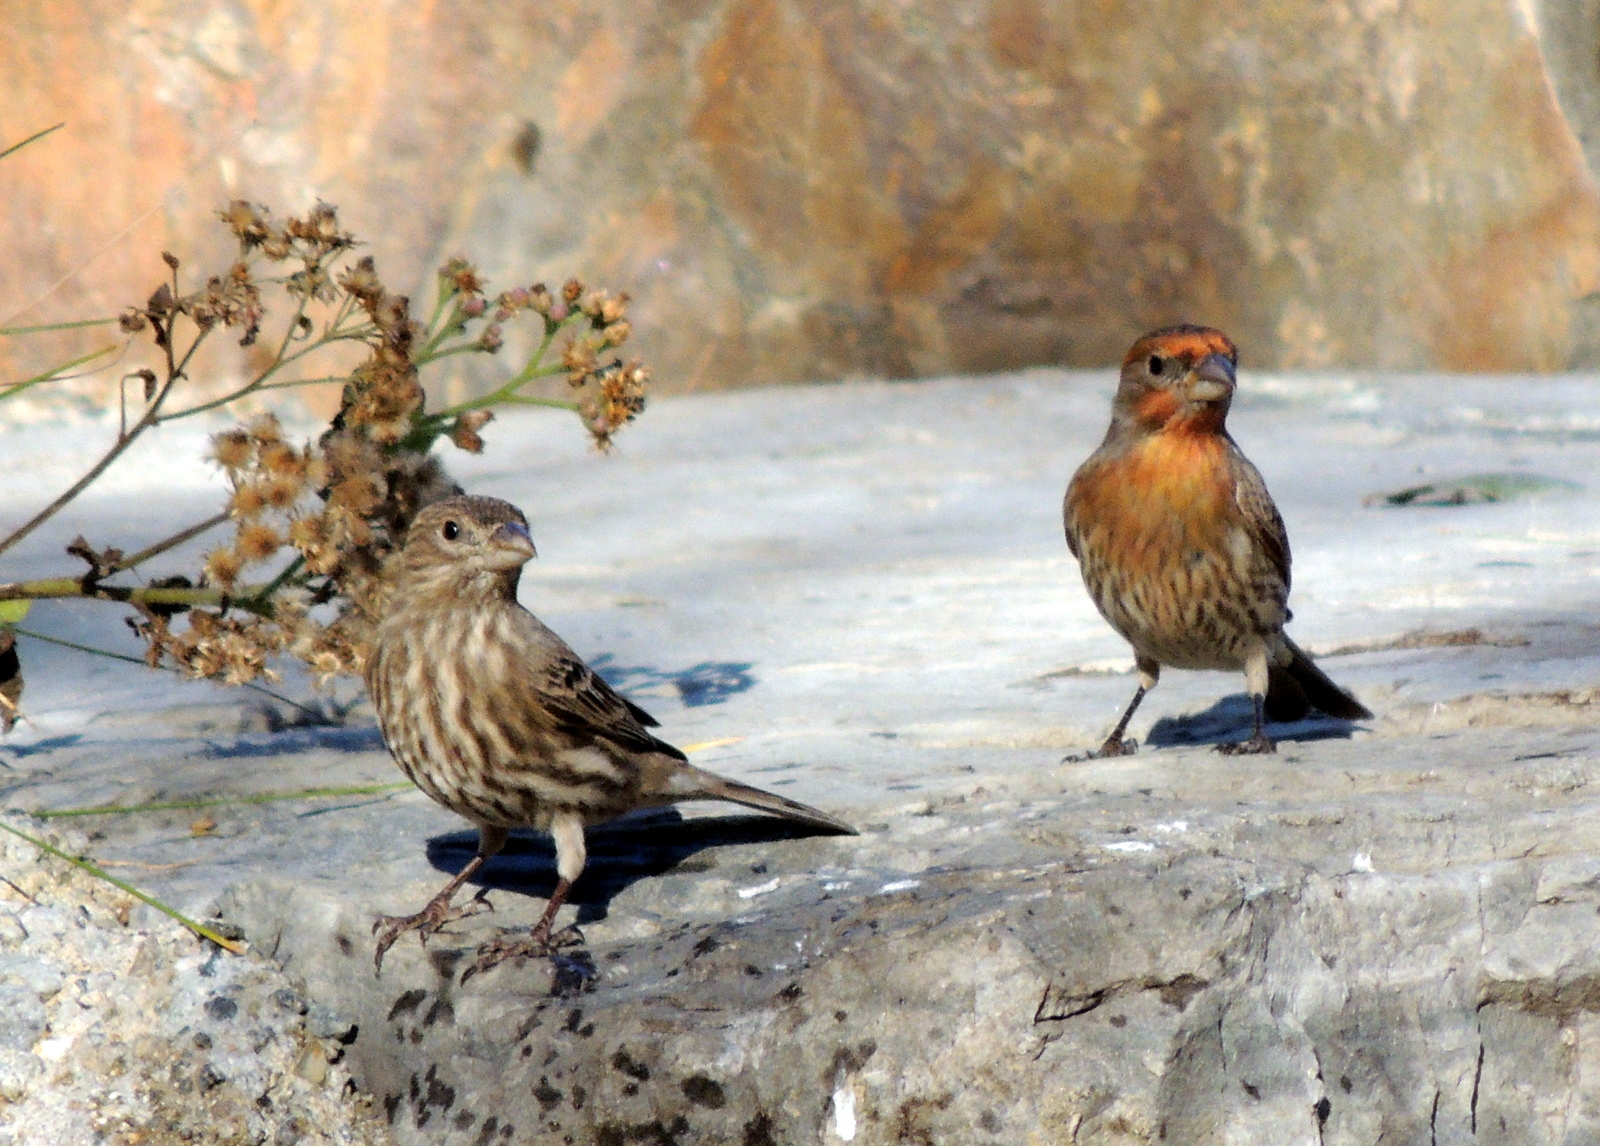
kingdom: Animalia
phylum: Chordata
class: Aves
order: Passeriformes
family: Fringillidae
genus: Haemorhous
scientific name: Haemorhous mexicanus
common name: House finch
